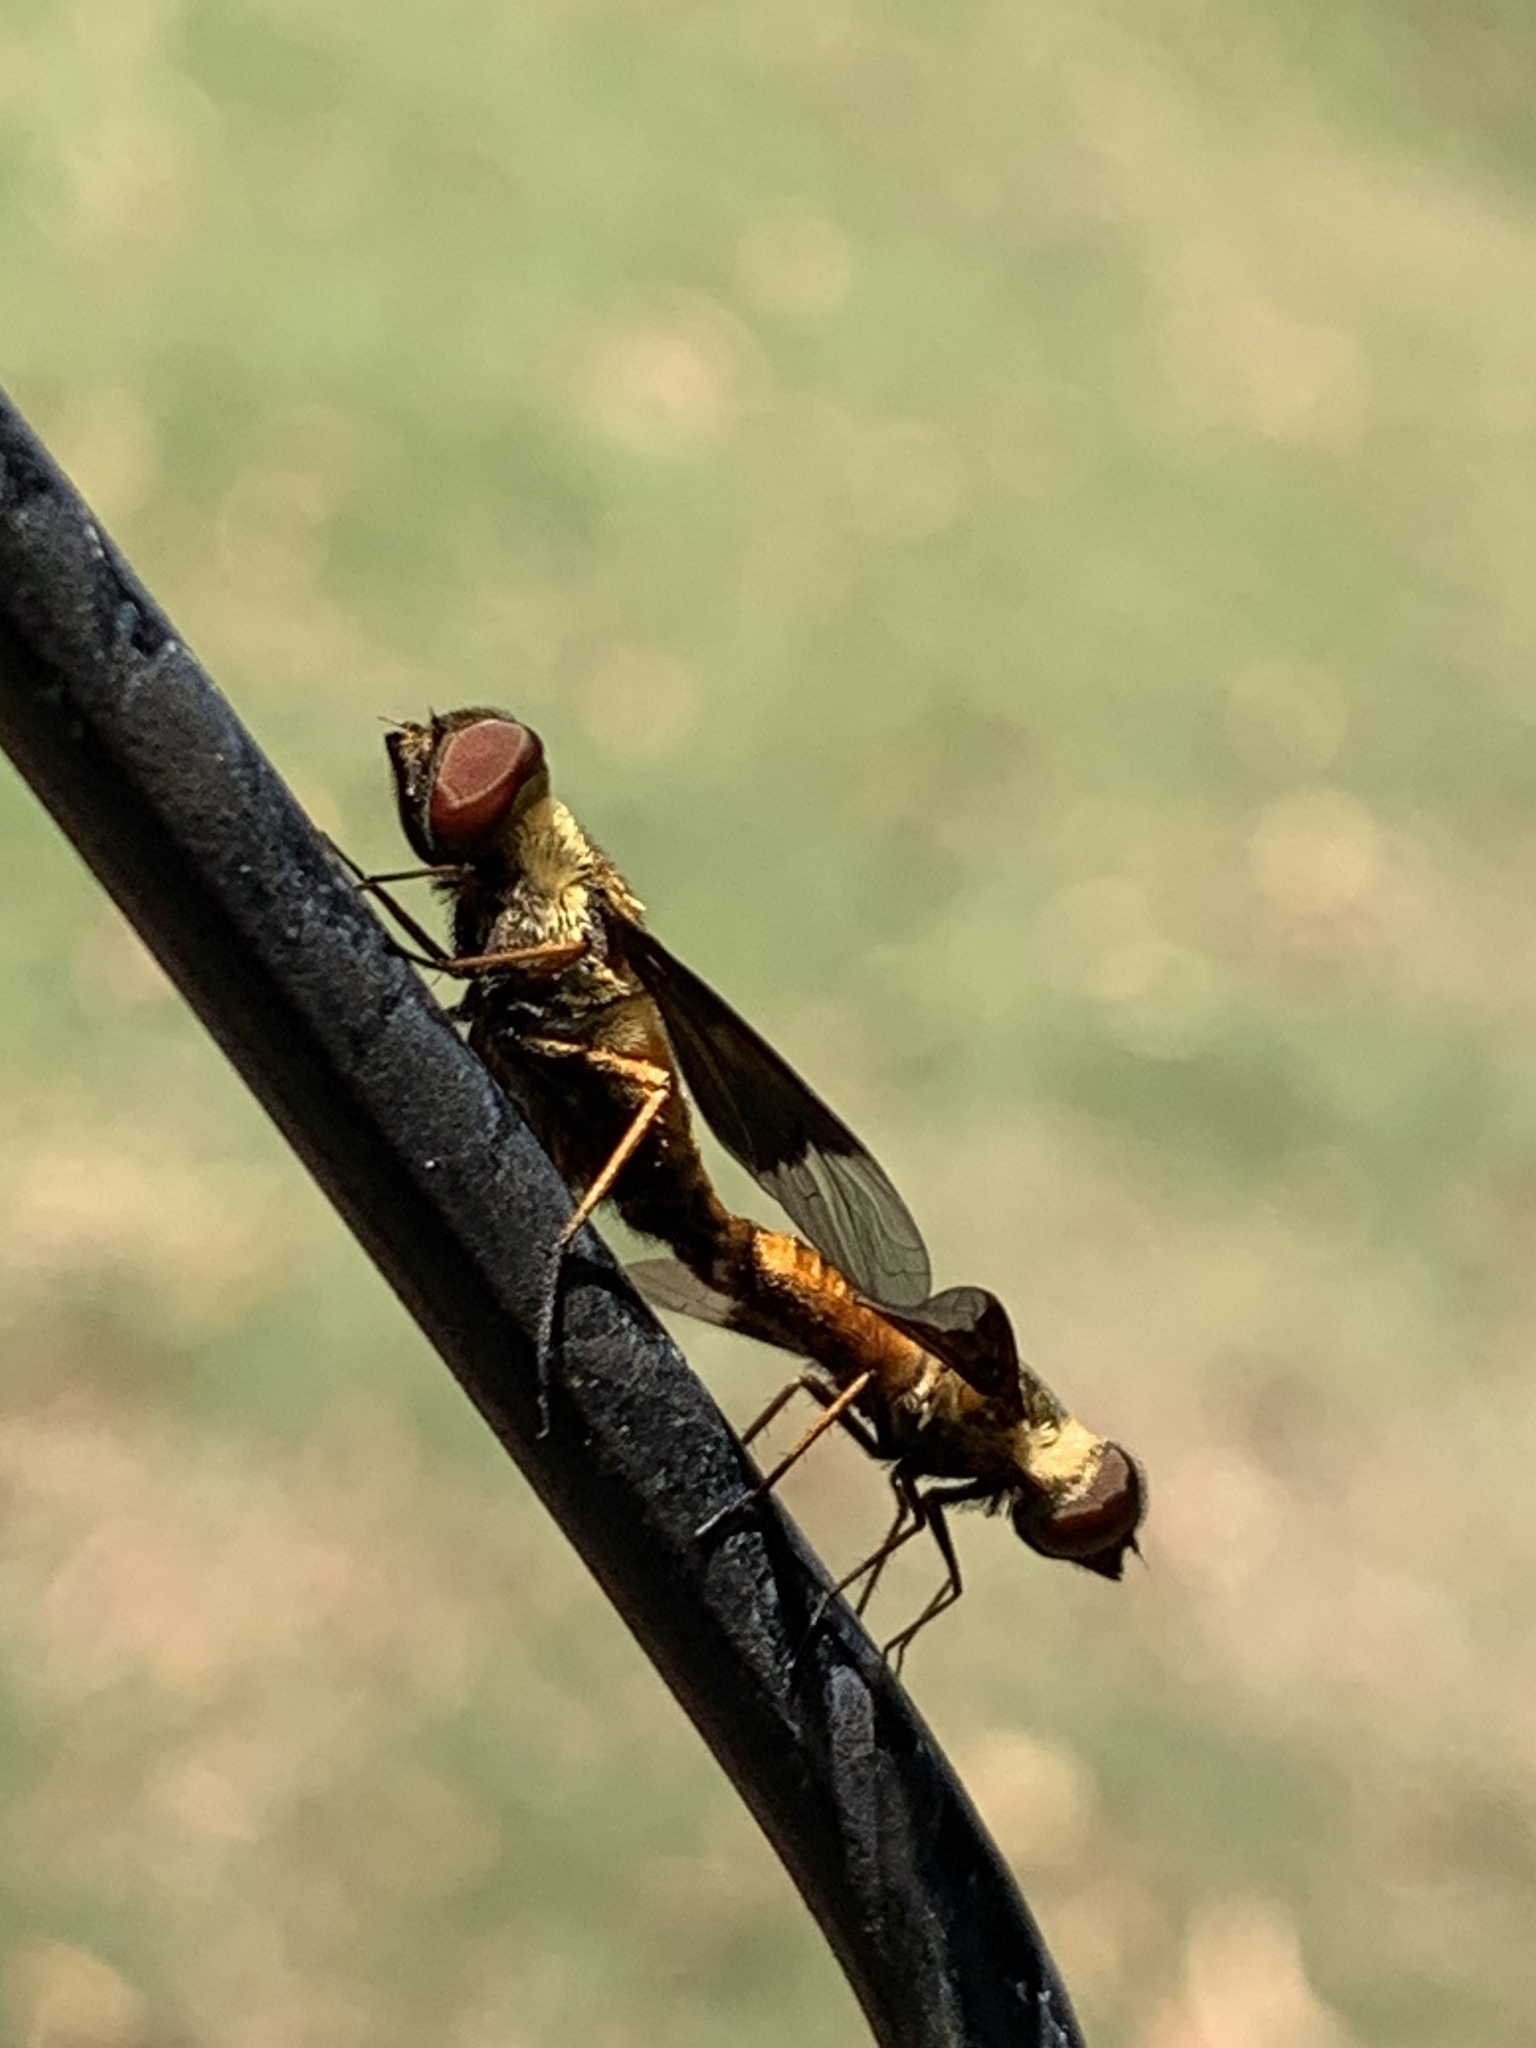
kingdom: Animalia
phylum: Arthropoda
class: Insecta
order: Diptera
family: Bombyliidae
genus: Chrysanthrax
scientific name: Chrysanthrax cypris
